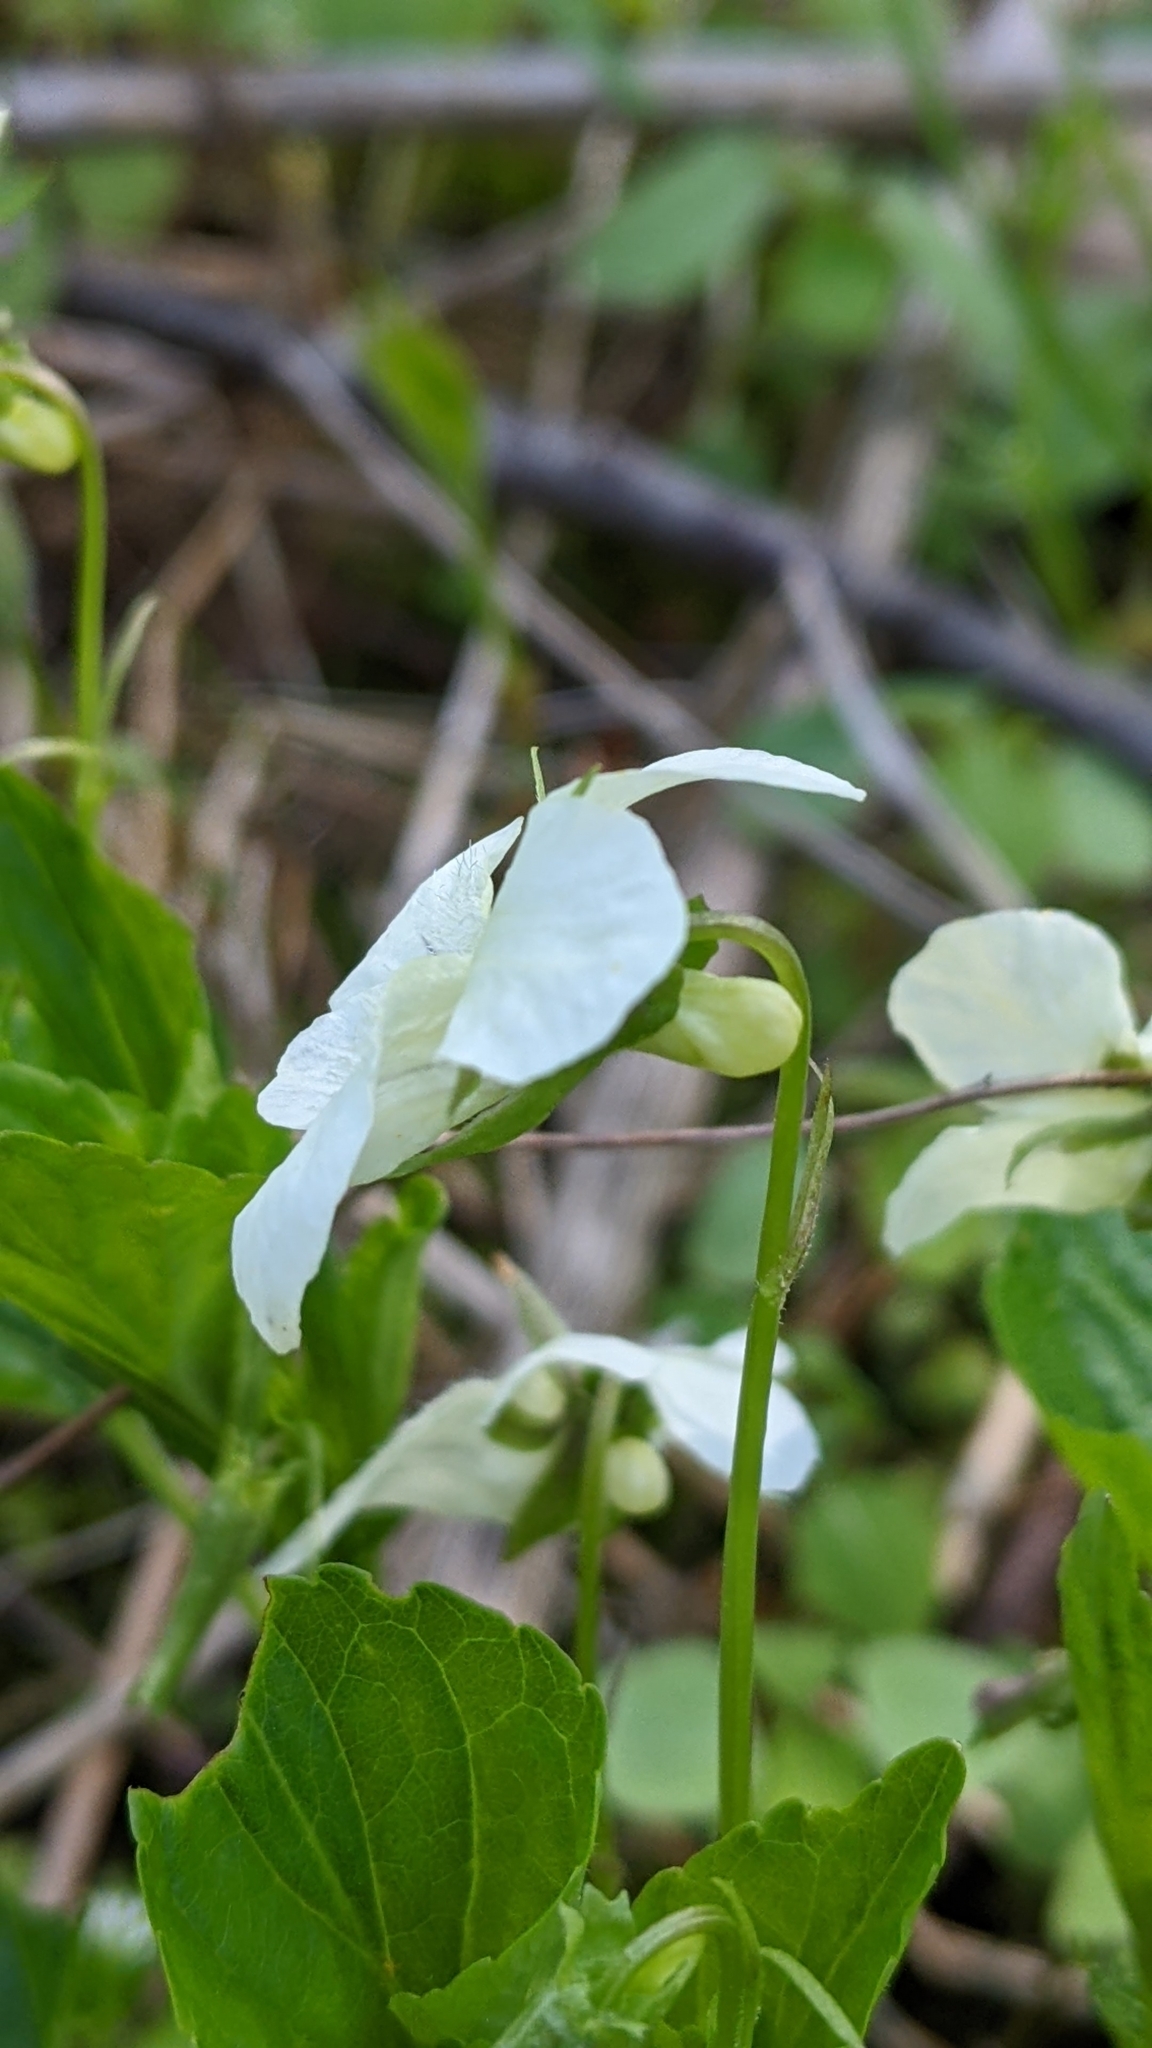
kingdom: Plantae
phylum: Tracheophyta
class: Magnoliopsida
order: Malpighiales
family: Violaceae
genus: Viola
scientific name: Viola striata
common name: Cream violet
